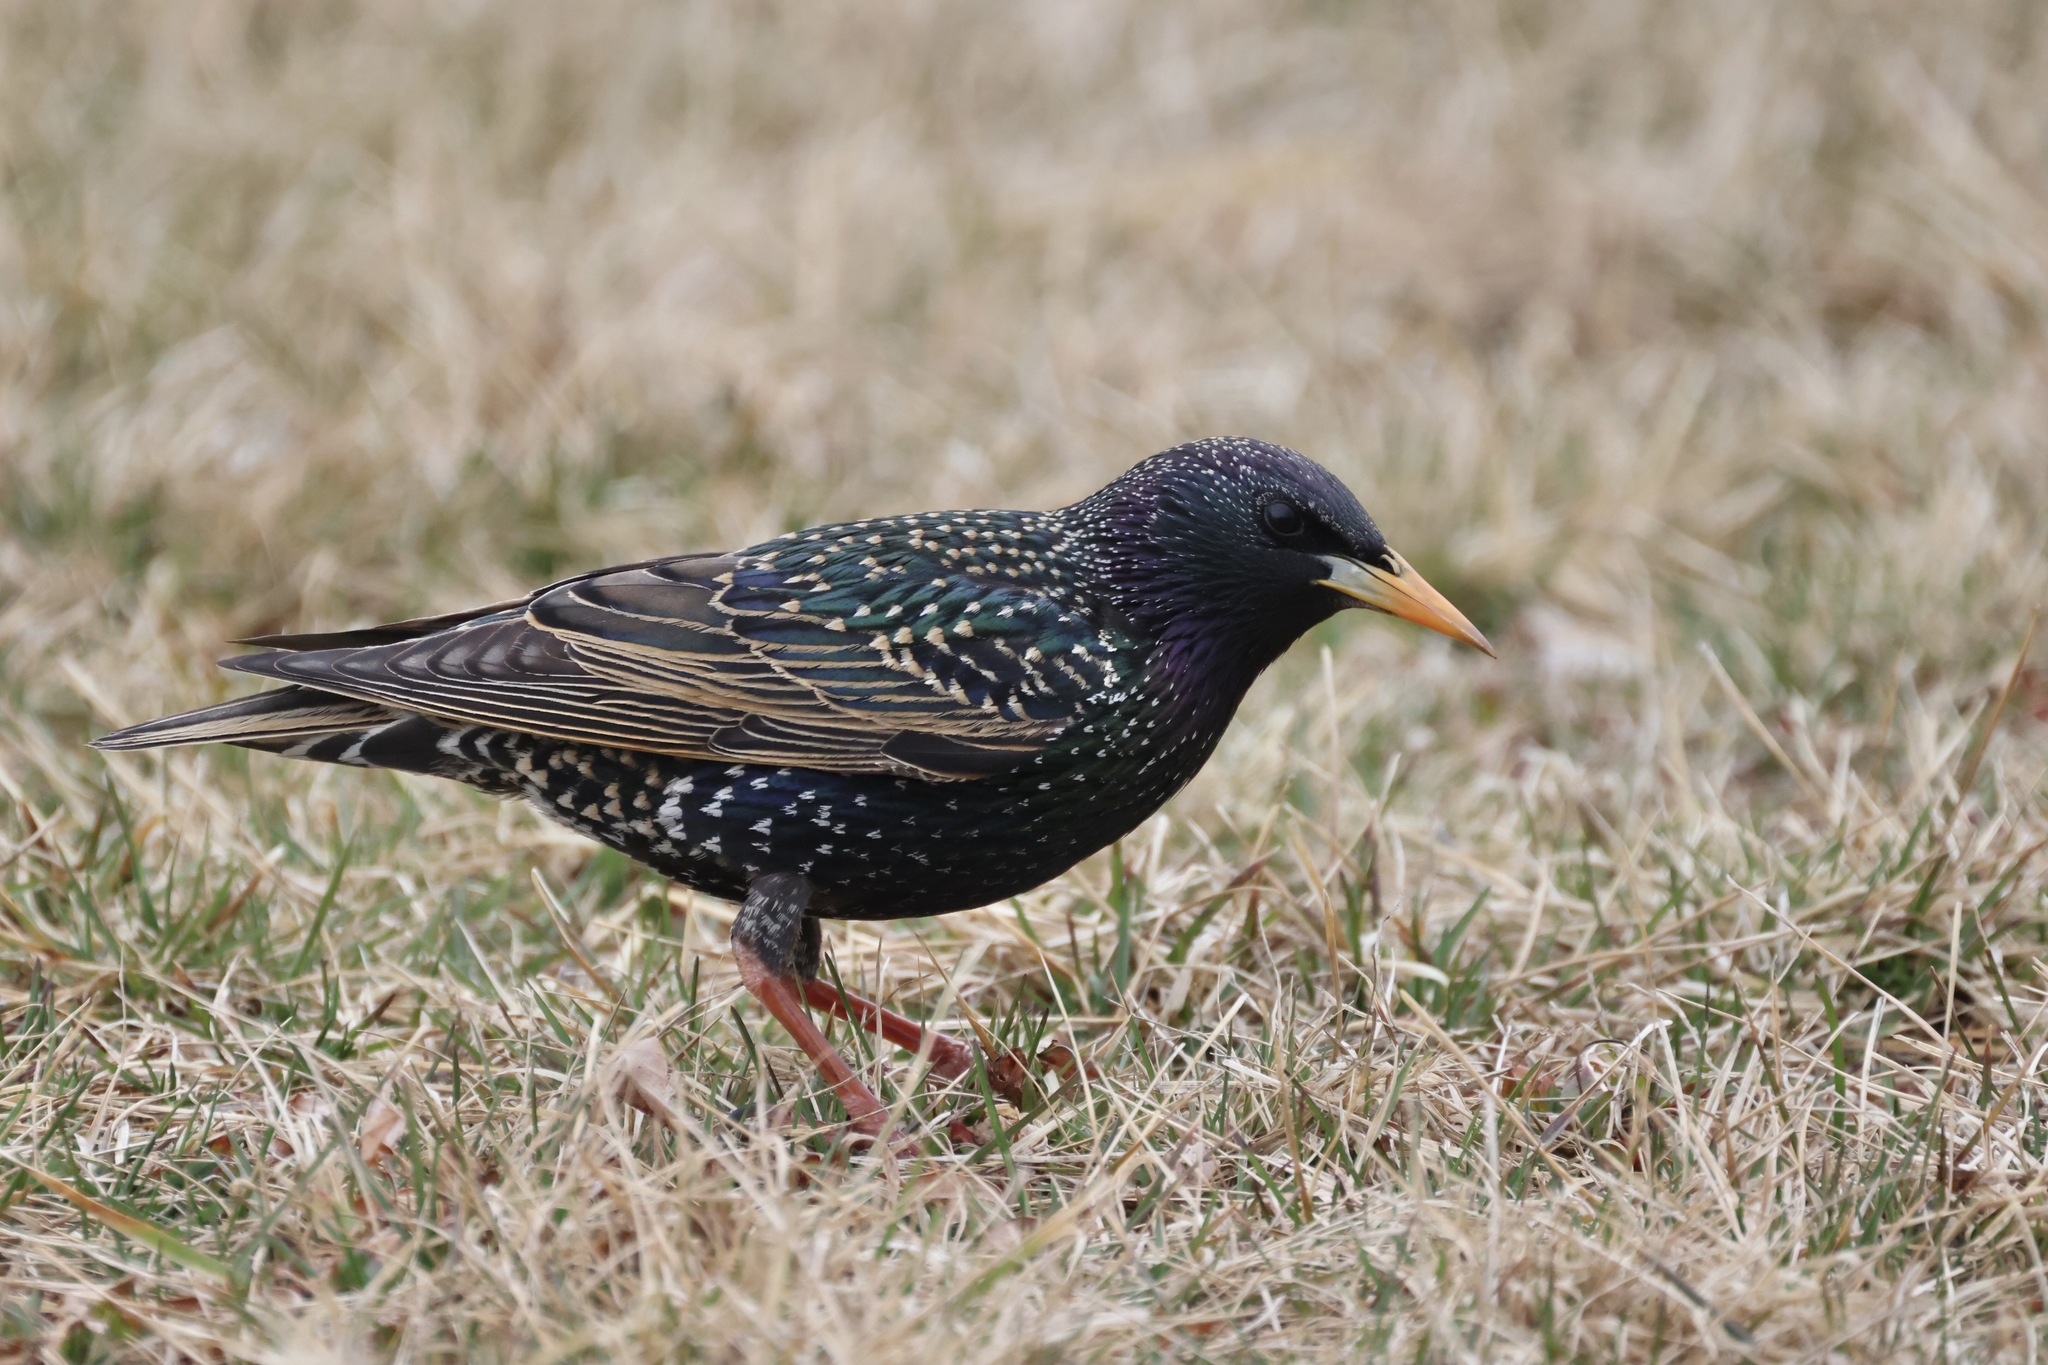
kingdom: Animalia
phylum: Chordata
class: Aves
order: Passeriformes
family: Sturnidae
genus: Sturnus
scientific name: Sturnus vulgaris
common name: Common starling
